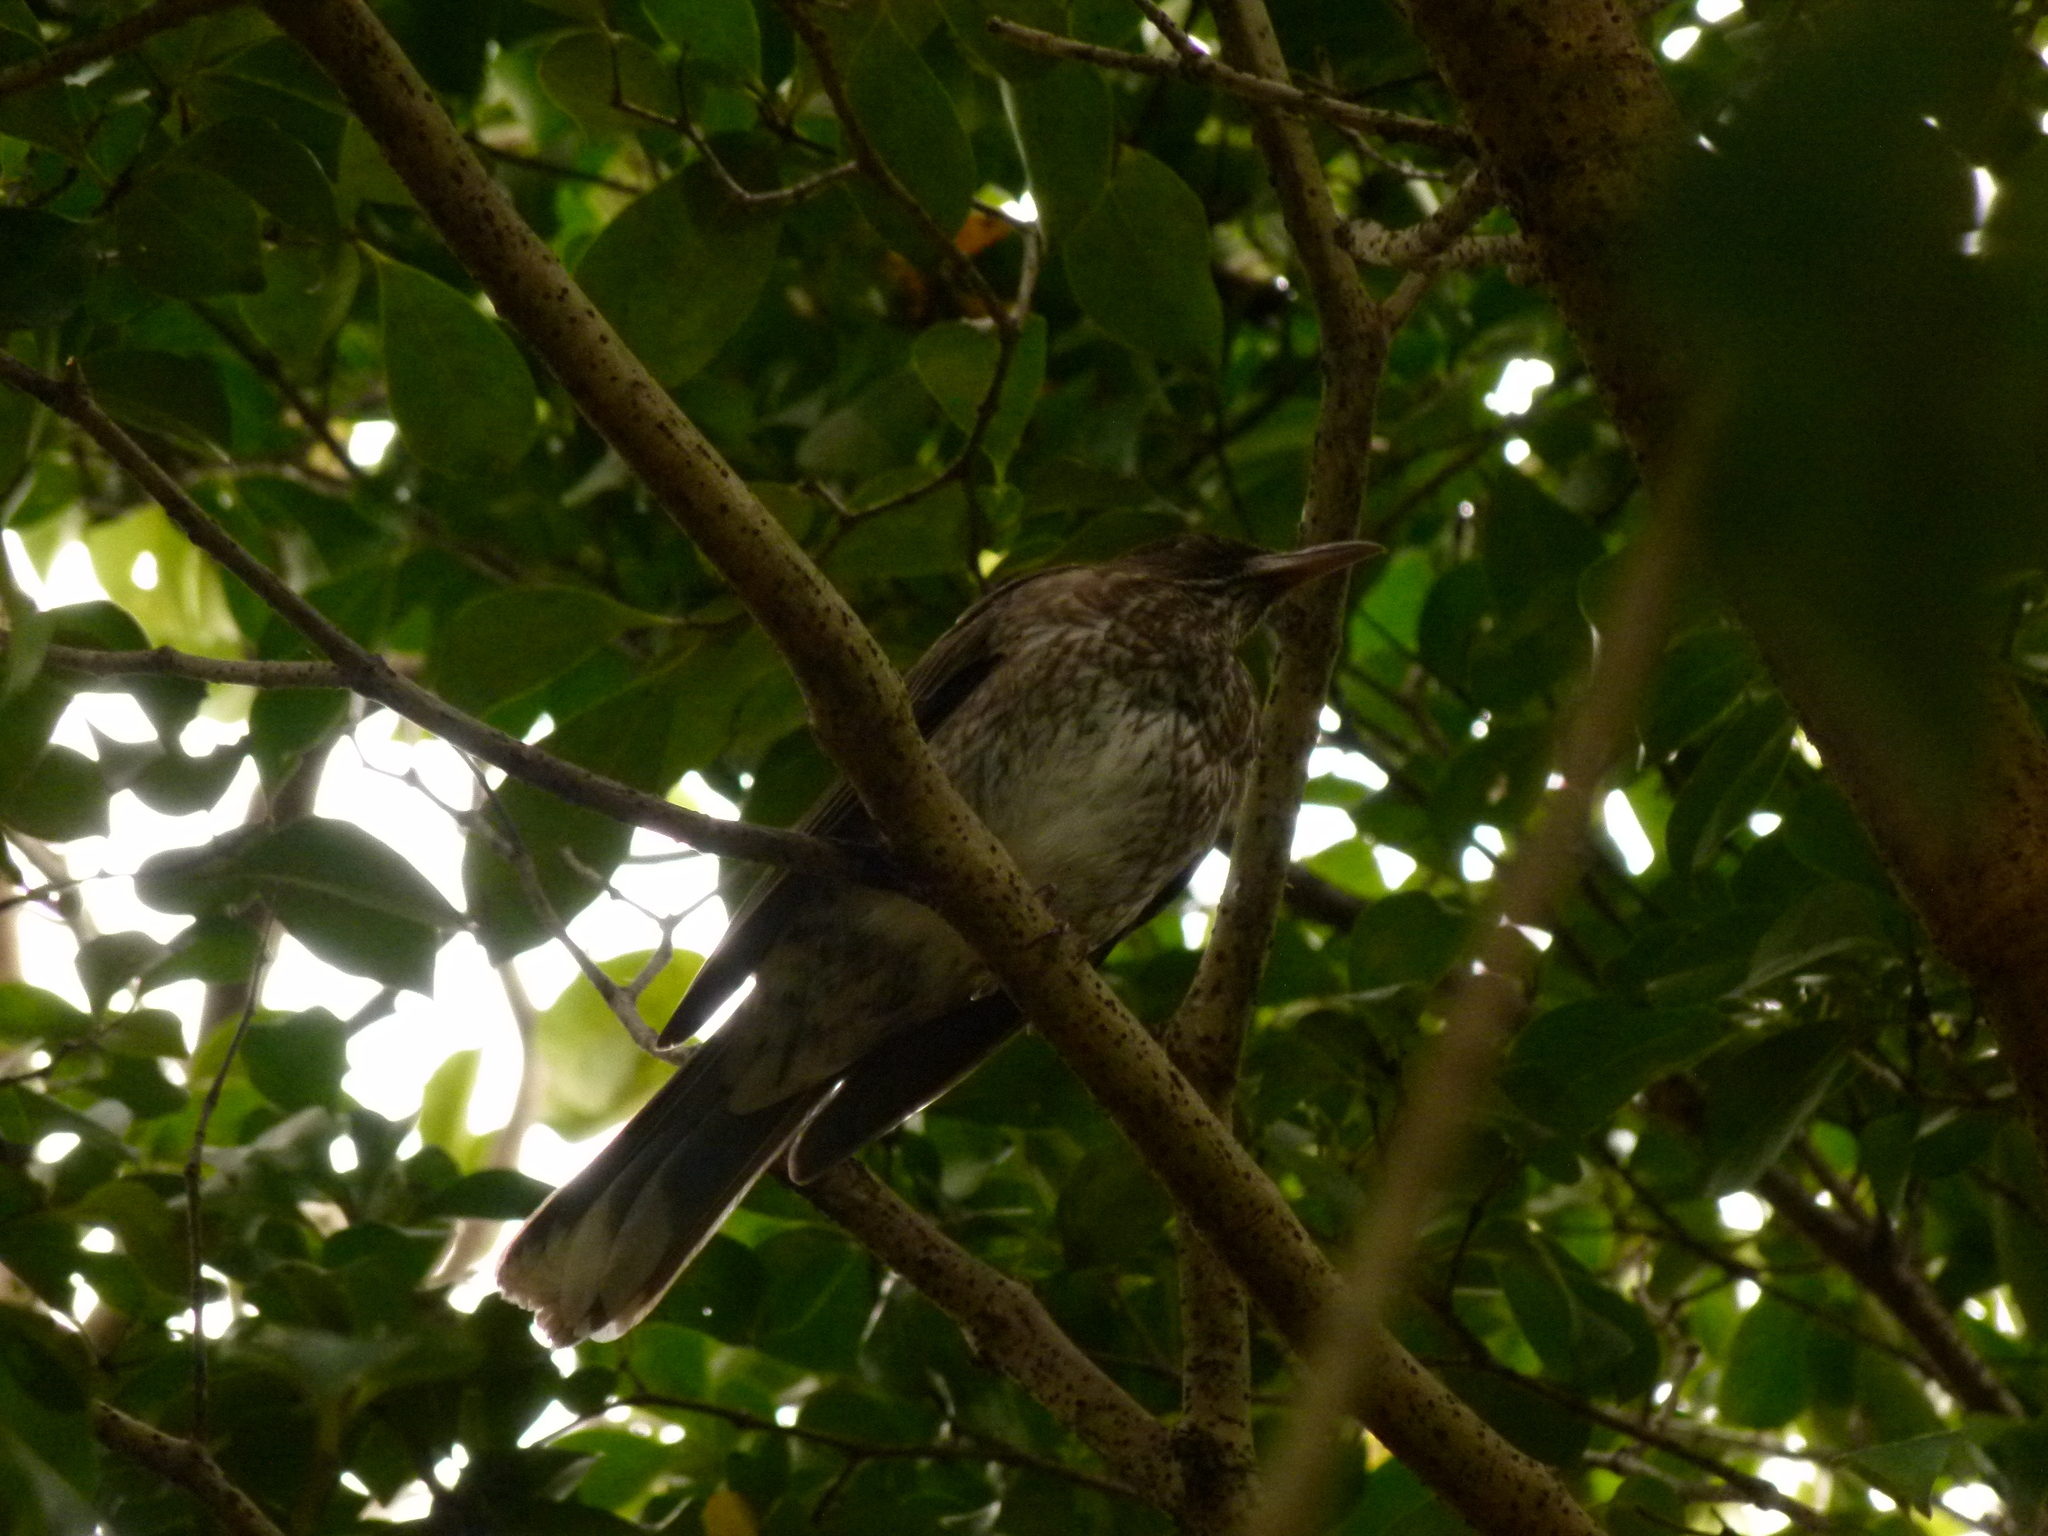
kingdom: Animalia
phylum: Chordata
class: Aves
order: Passeriformes
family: Mimidae
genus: Margarops
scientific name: Margarops fuscatus
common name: Pearly-eyed thrasher
